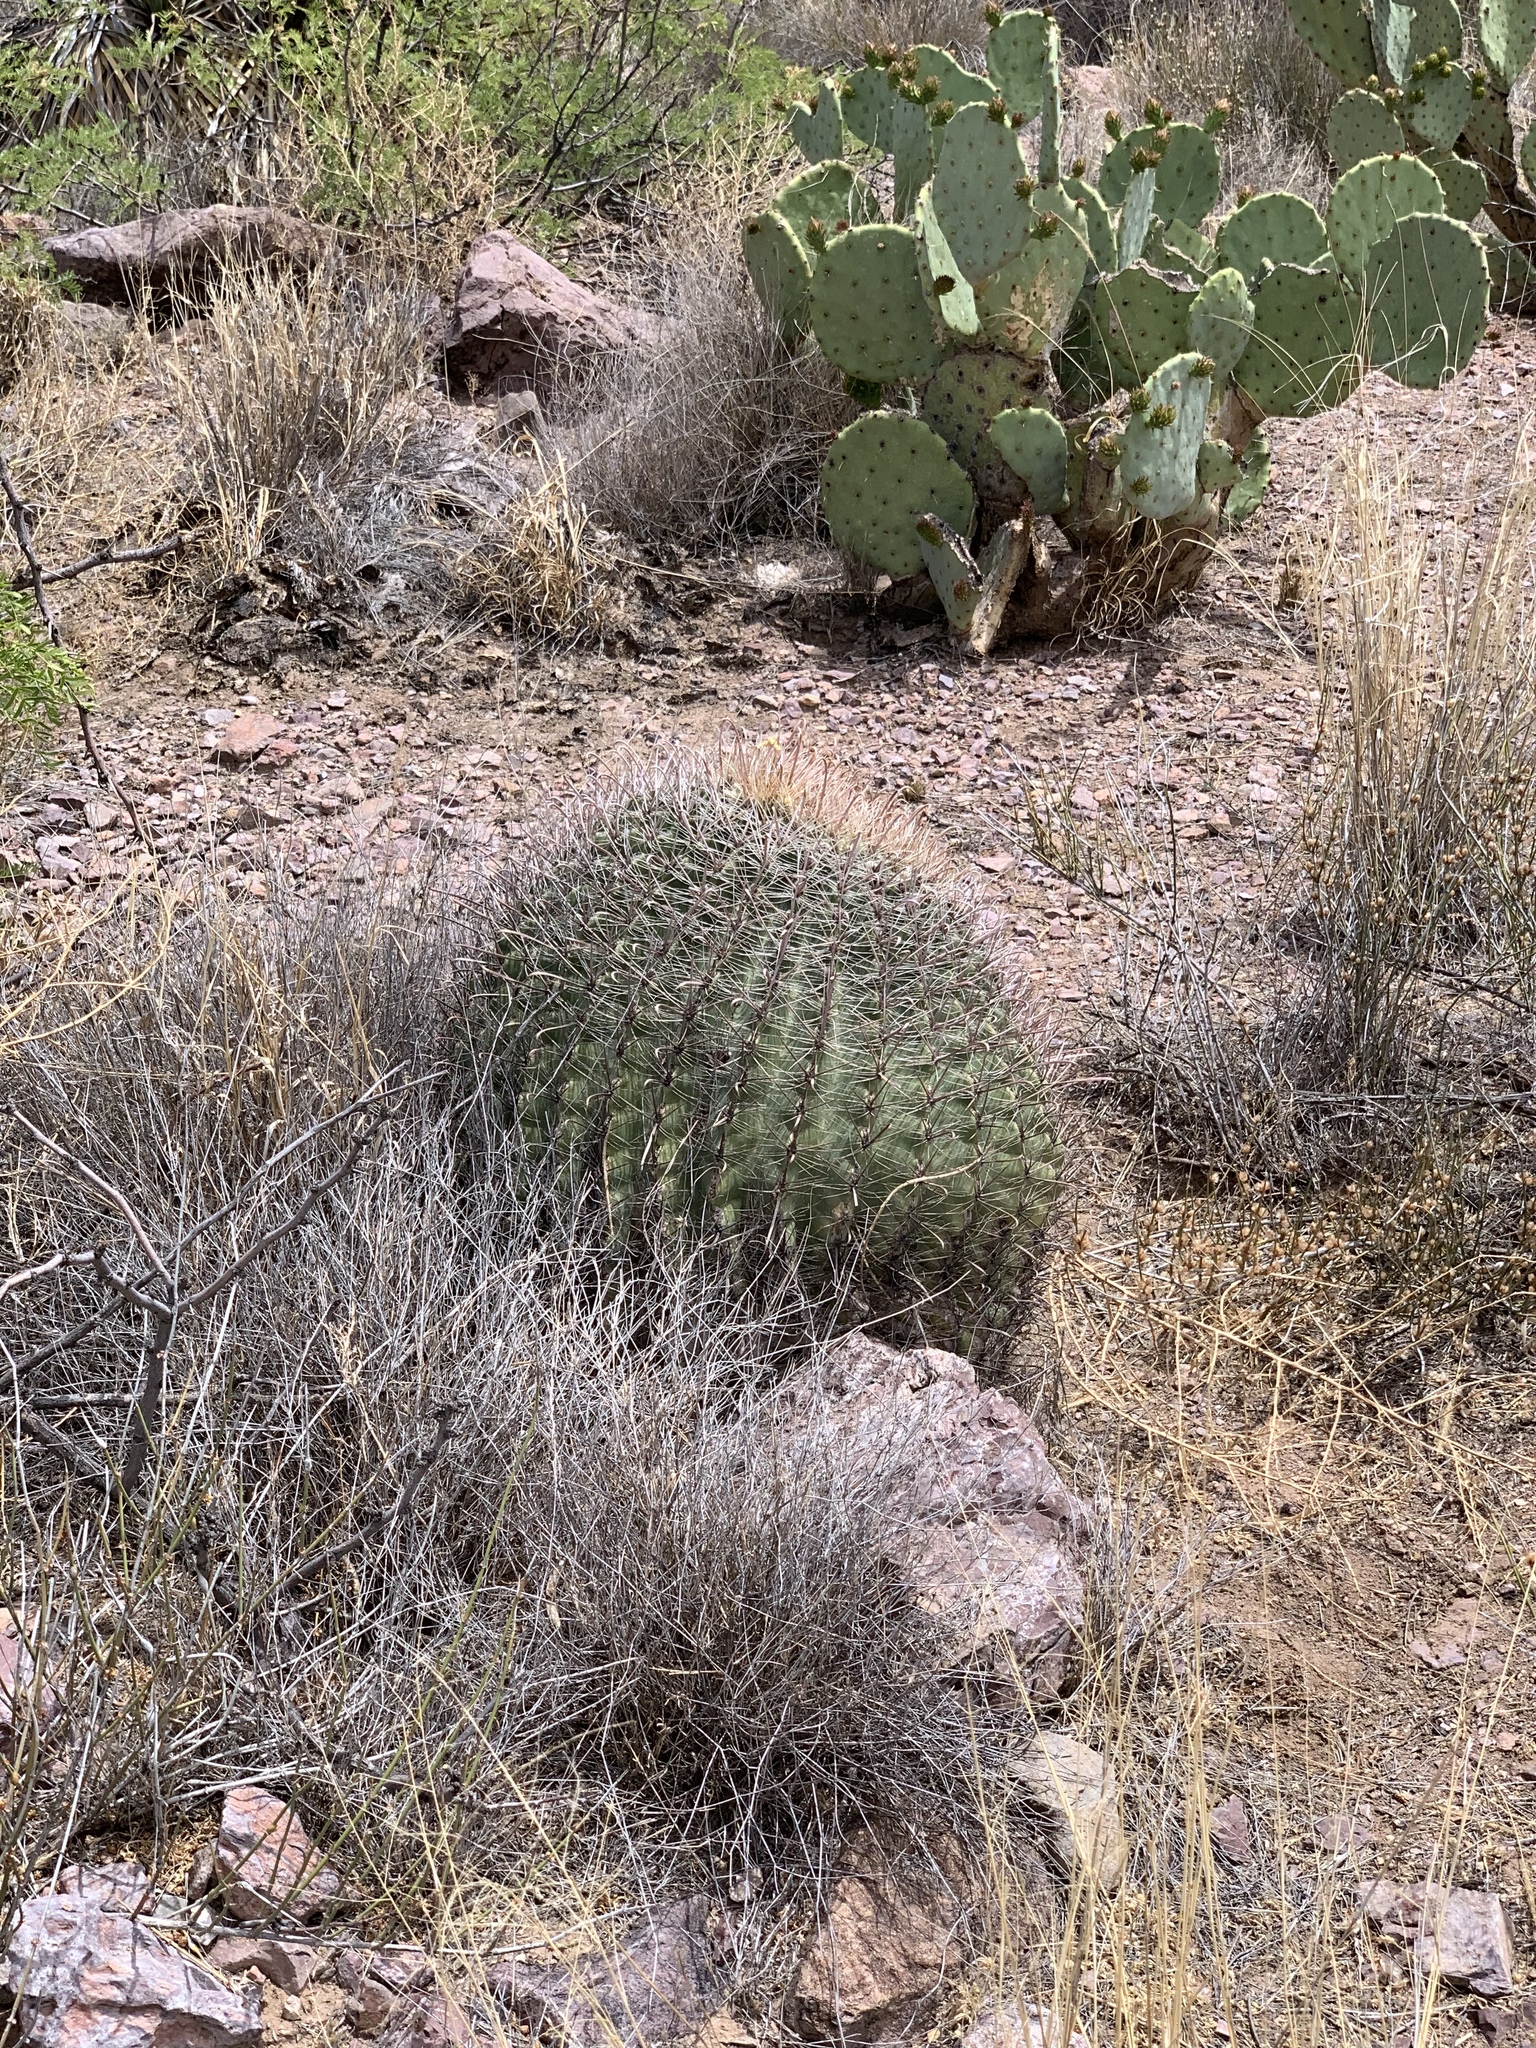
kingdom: Plantae
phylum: Tracheophyta
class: Magnoliopsida
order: Caryophyllales
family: Cactaceae
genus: Ferocactus
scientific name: Ferocactus wislizeni
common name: Candy barrel cactus
